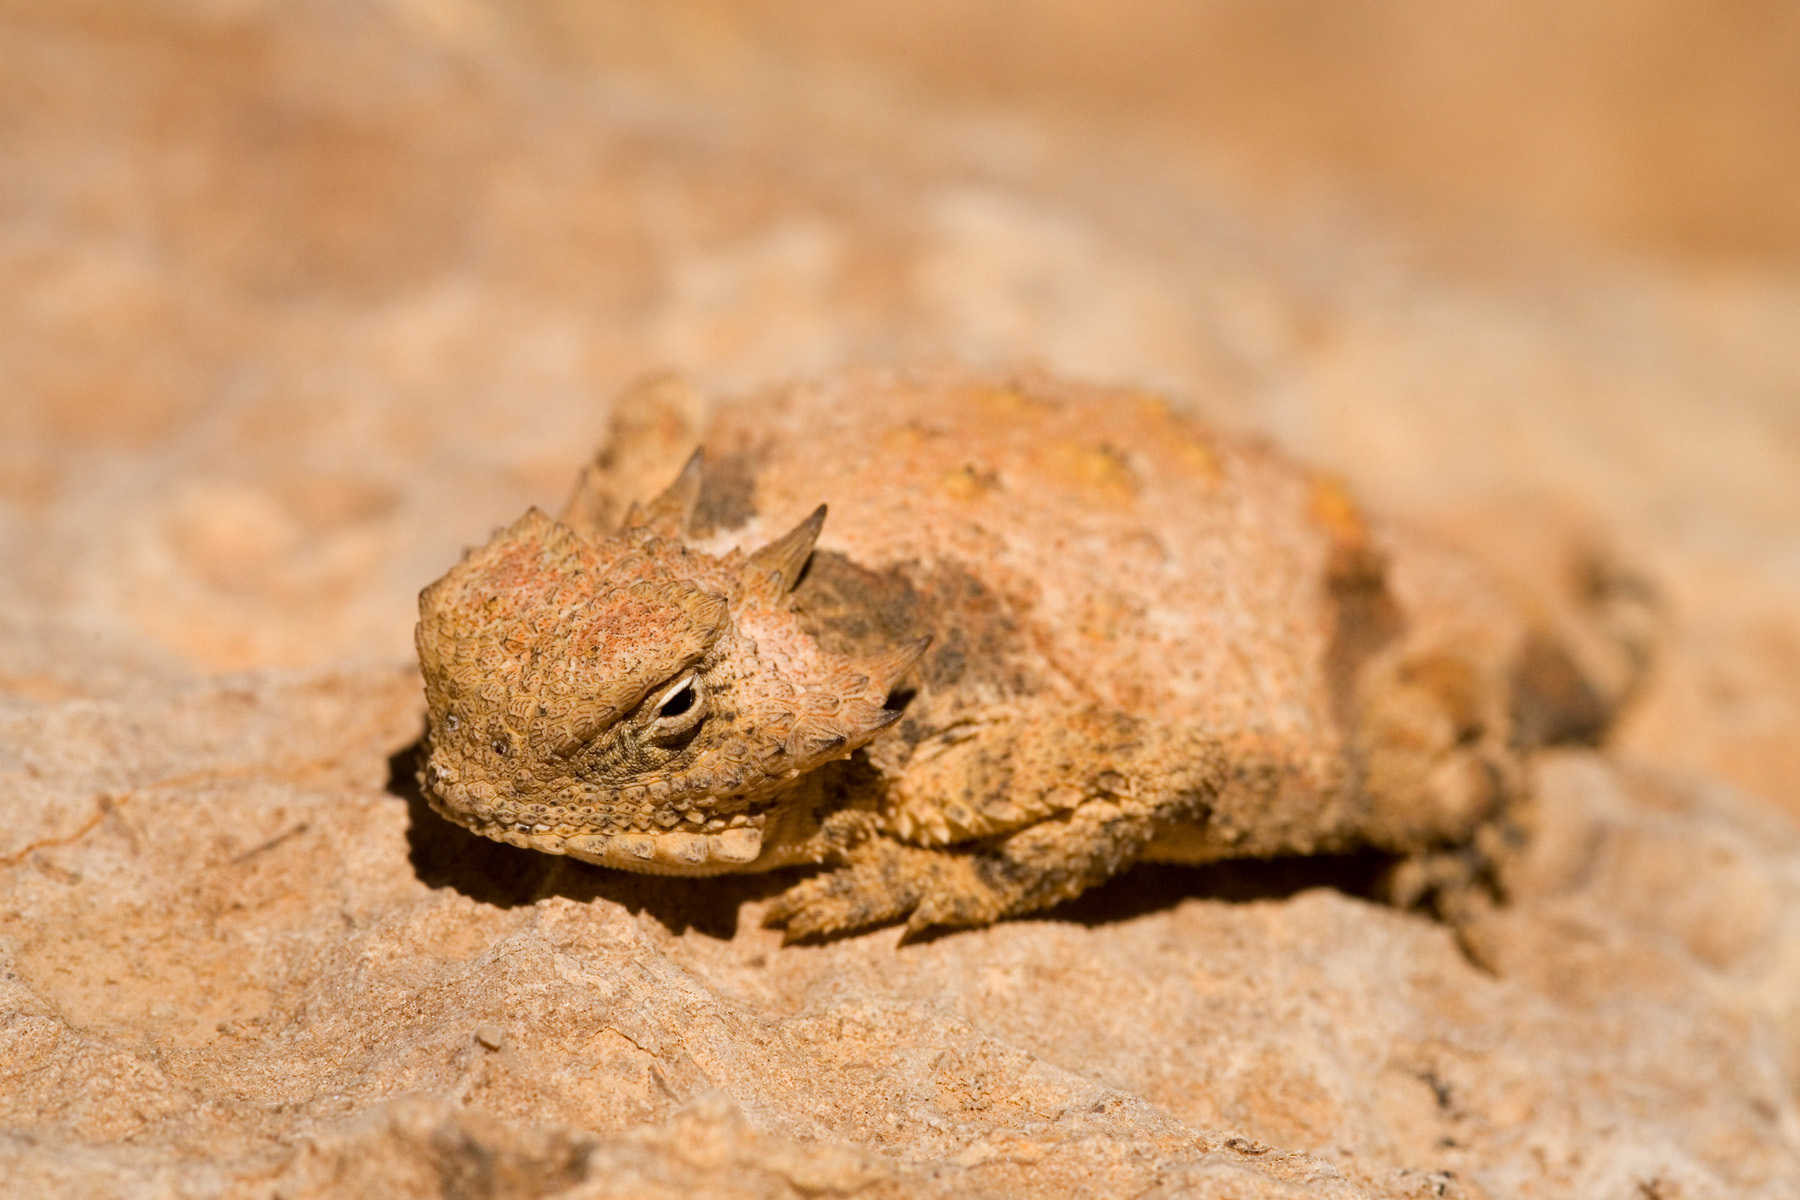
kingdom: Animalia
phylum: Chordata
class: Squamata
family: Phrynosomatidae
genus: Phrynosoma
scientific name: Phrynosoma modestum
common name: Roundtail horned lizard
